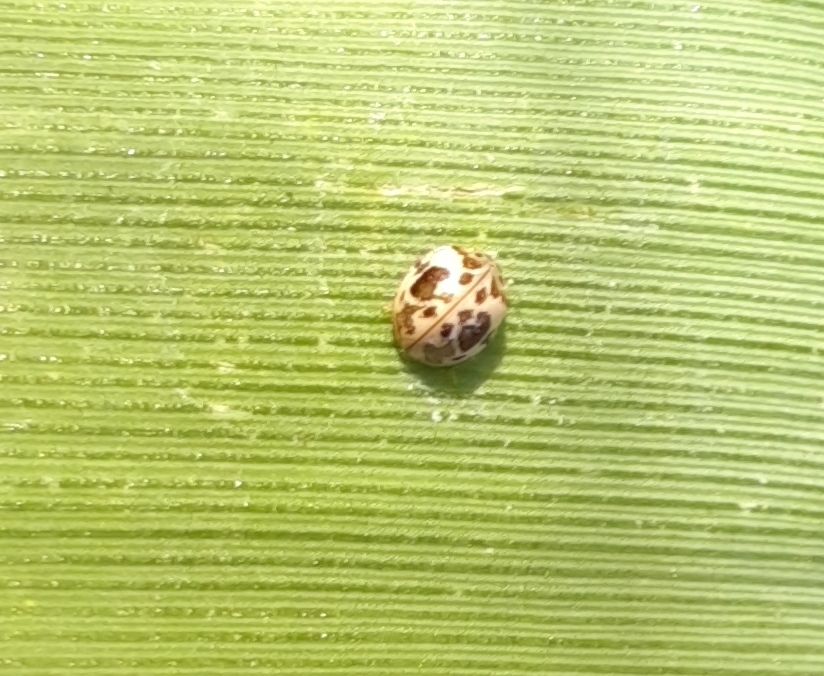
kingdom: Animalia
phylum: Arthropoda
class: Insecta
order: Coleoptera
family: Coccinellidae
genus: Psyllobora
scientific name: Psyllobora
